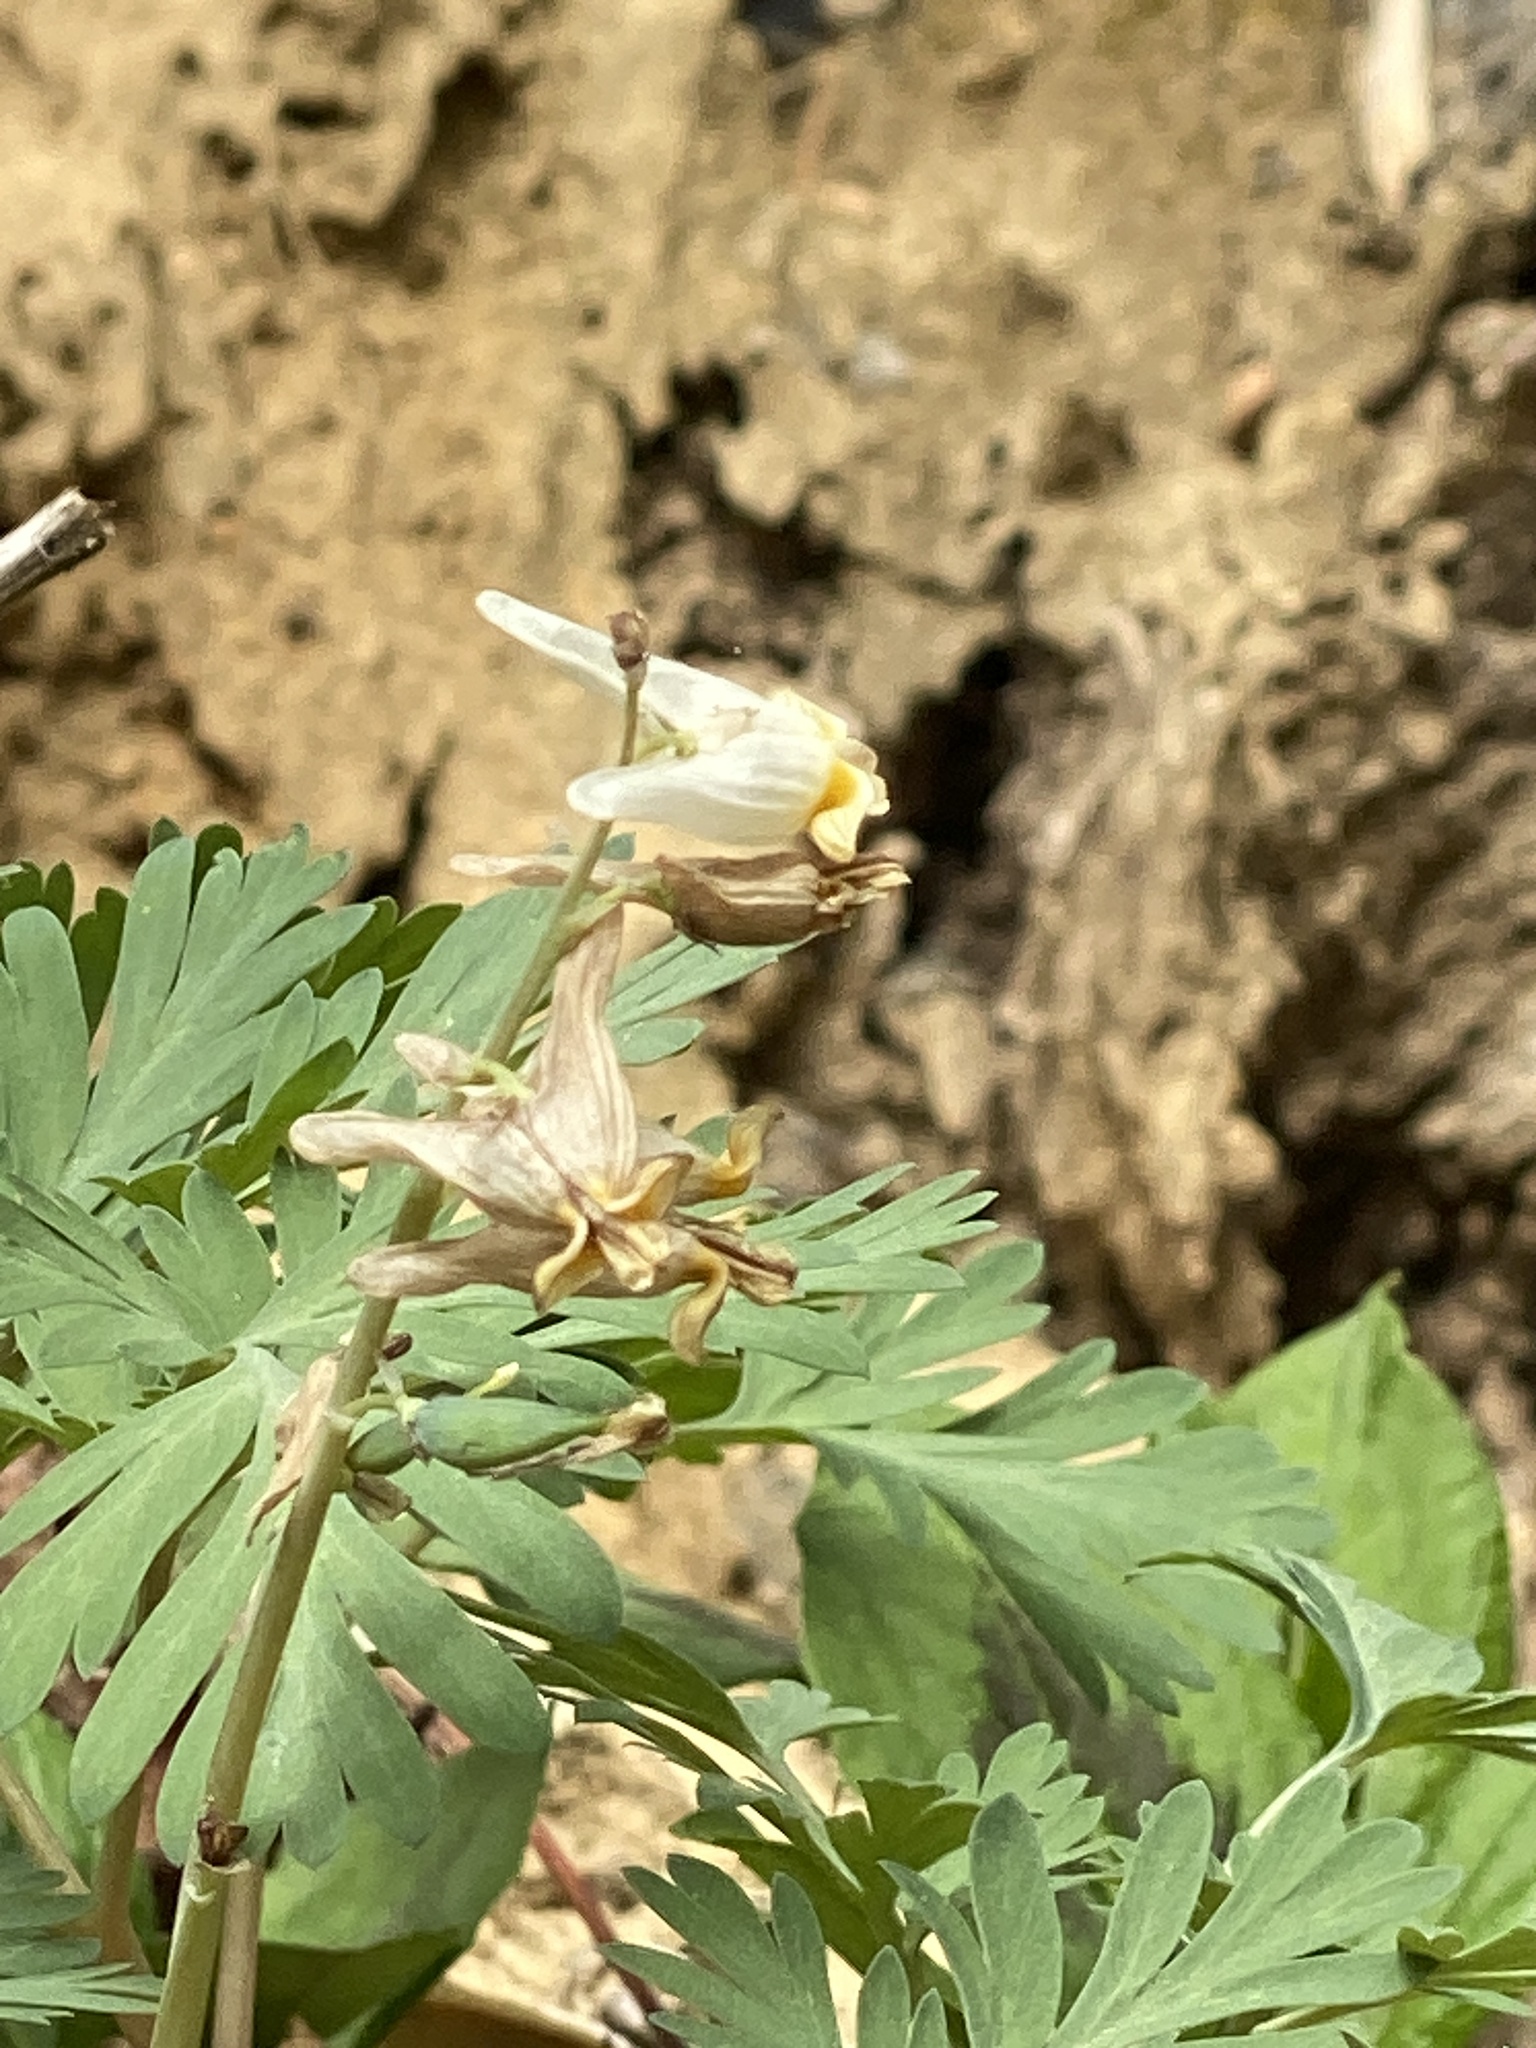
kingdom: Plantae
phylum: Tracheophyta
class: Magnoliopsida
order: Ranunculales
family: Papaveraceae
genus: Dicentra
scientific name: Dicentra cucullaria
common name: Dutchman's breeches
